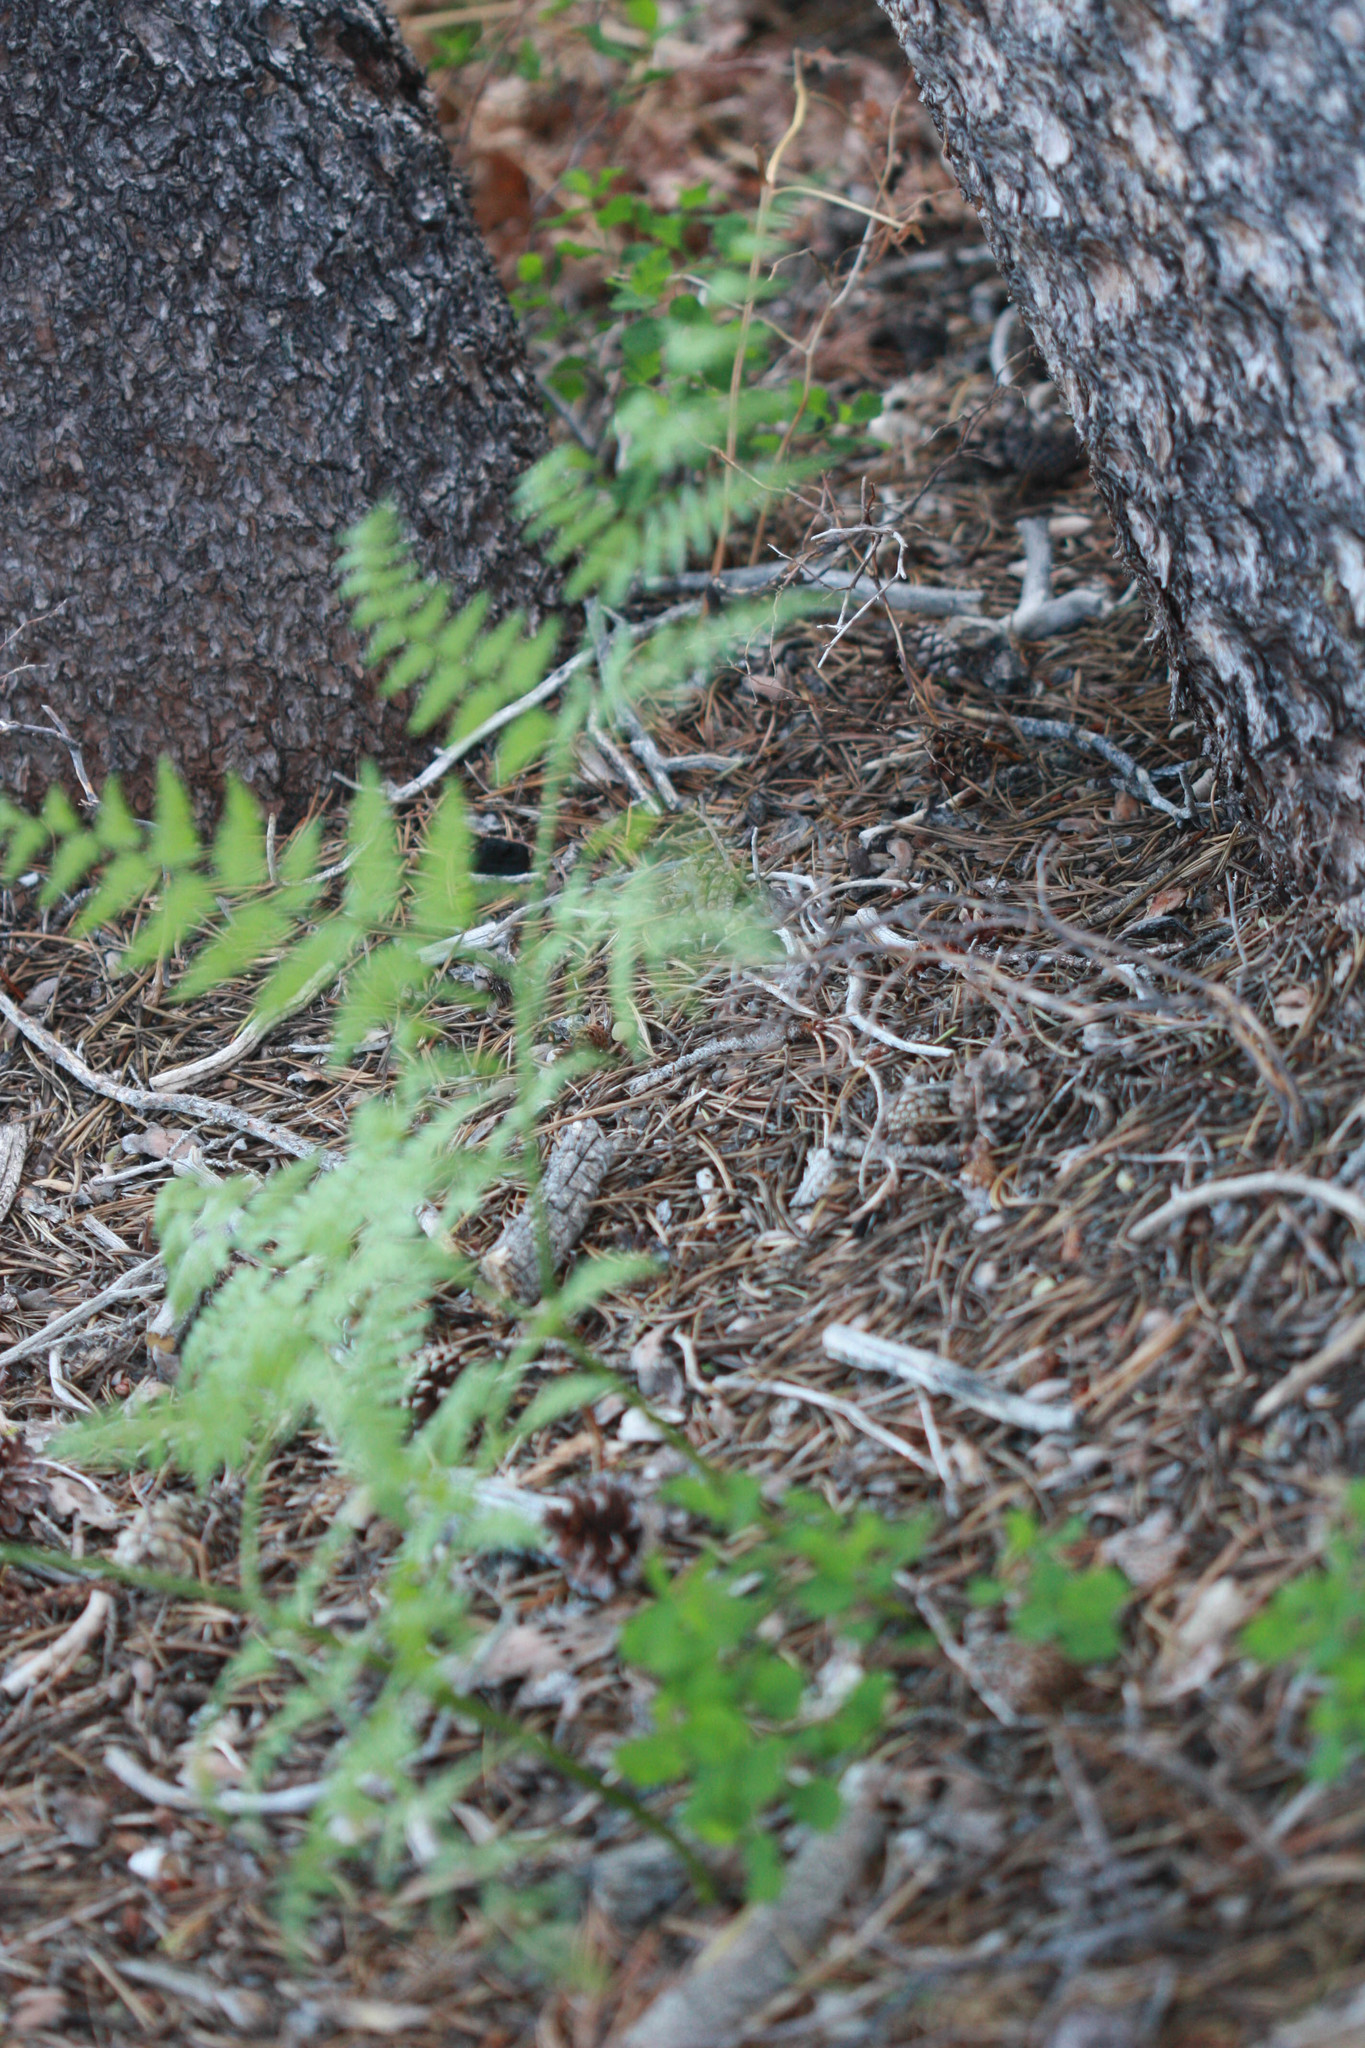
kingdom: Plantae
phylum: Tracheophyta
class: Polypodiopsida
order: Polypodiales
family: Dennstaedtiaceae
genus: Pteridium
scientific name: Pteridium aquilinum
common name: Bracken
